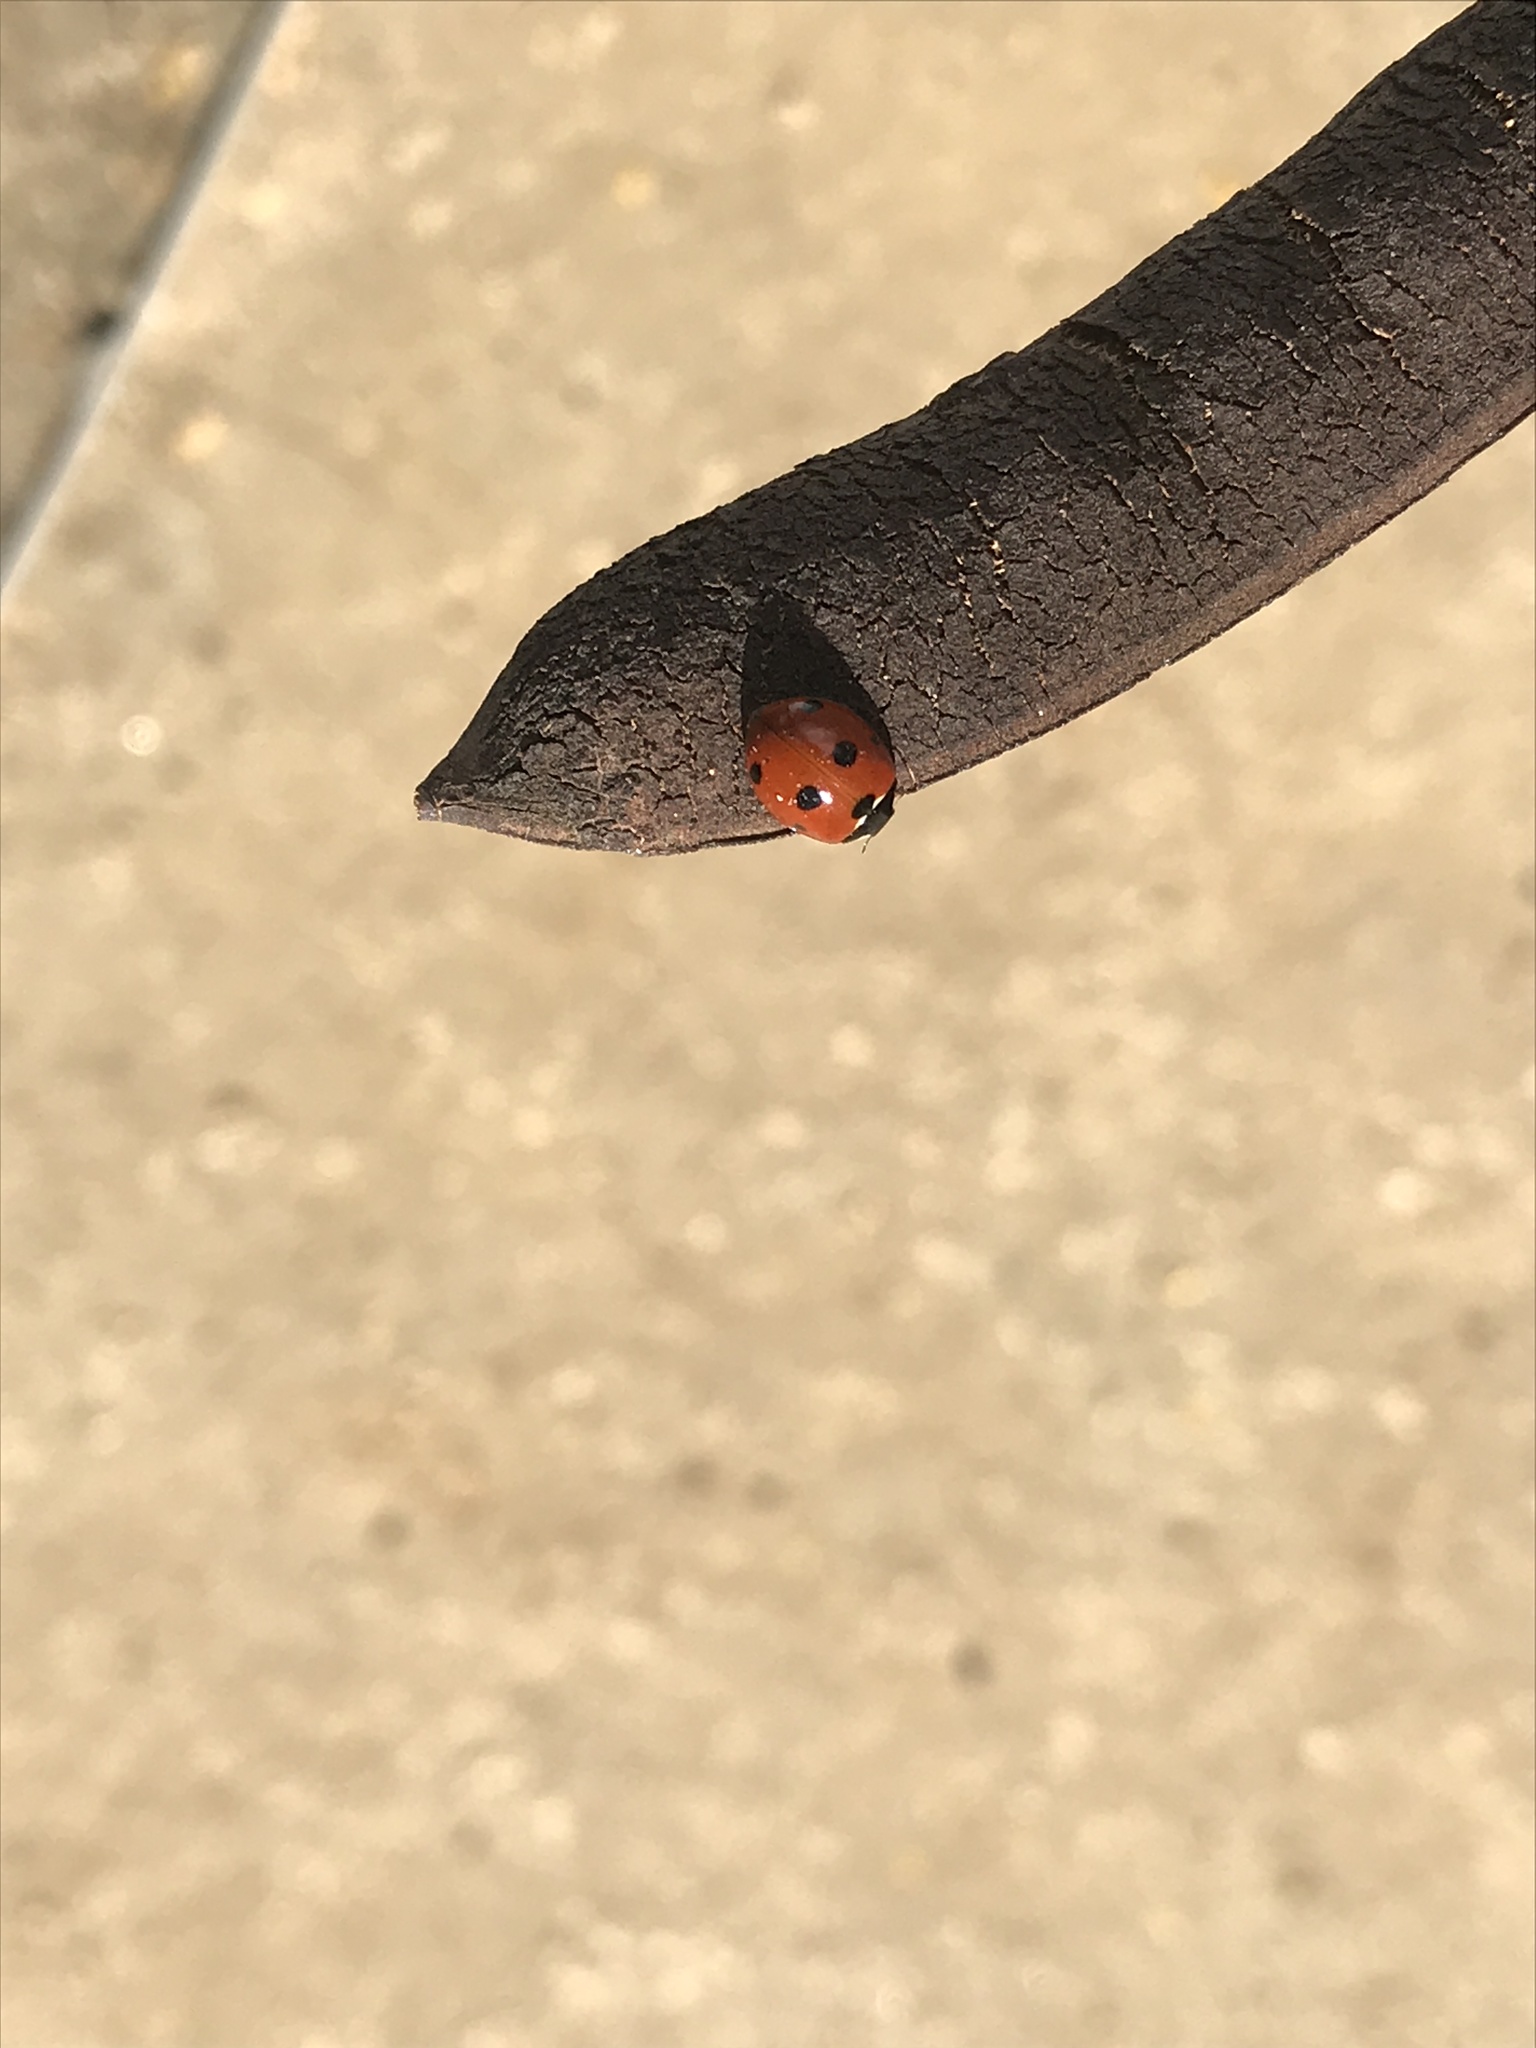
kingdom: Animalia
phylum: Arthropoda
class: Insecta
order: Coleoptera
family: Coccinellidae
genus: Coccinella
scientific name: Coccinella septempunctata
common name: Sevenspotted lady beetle
